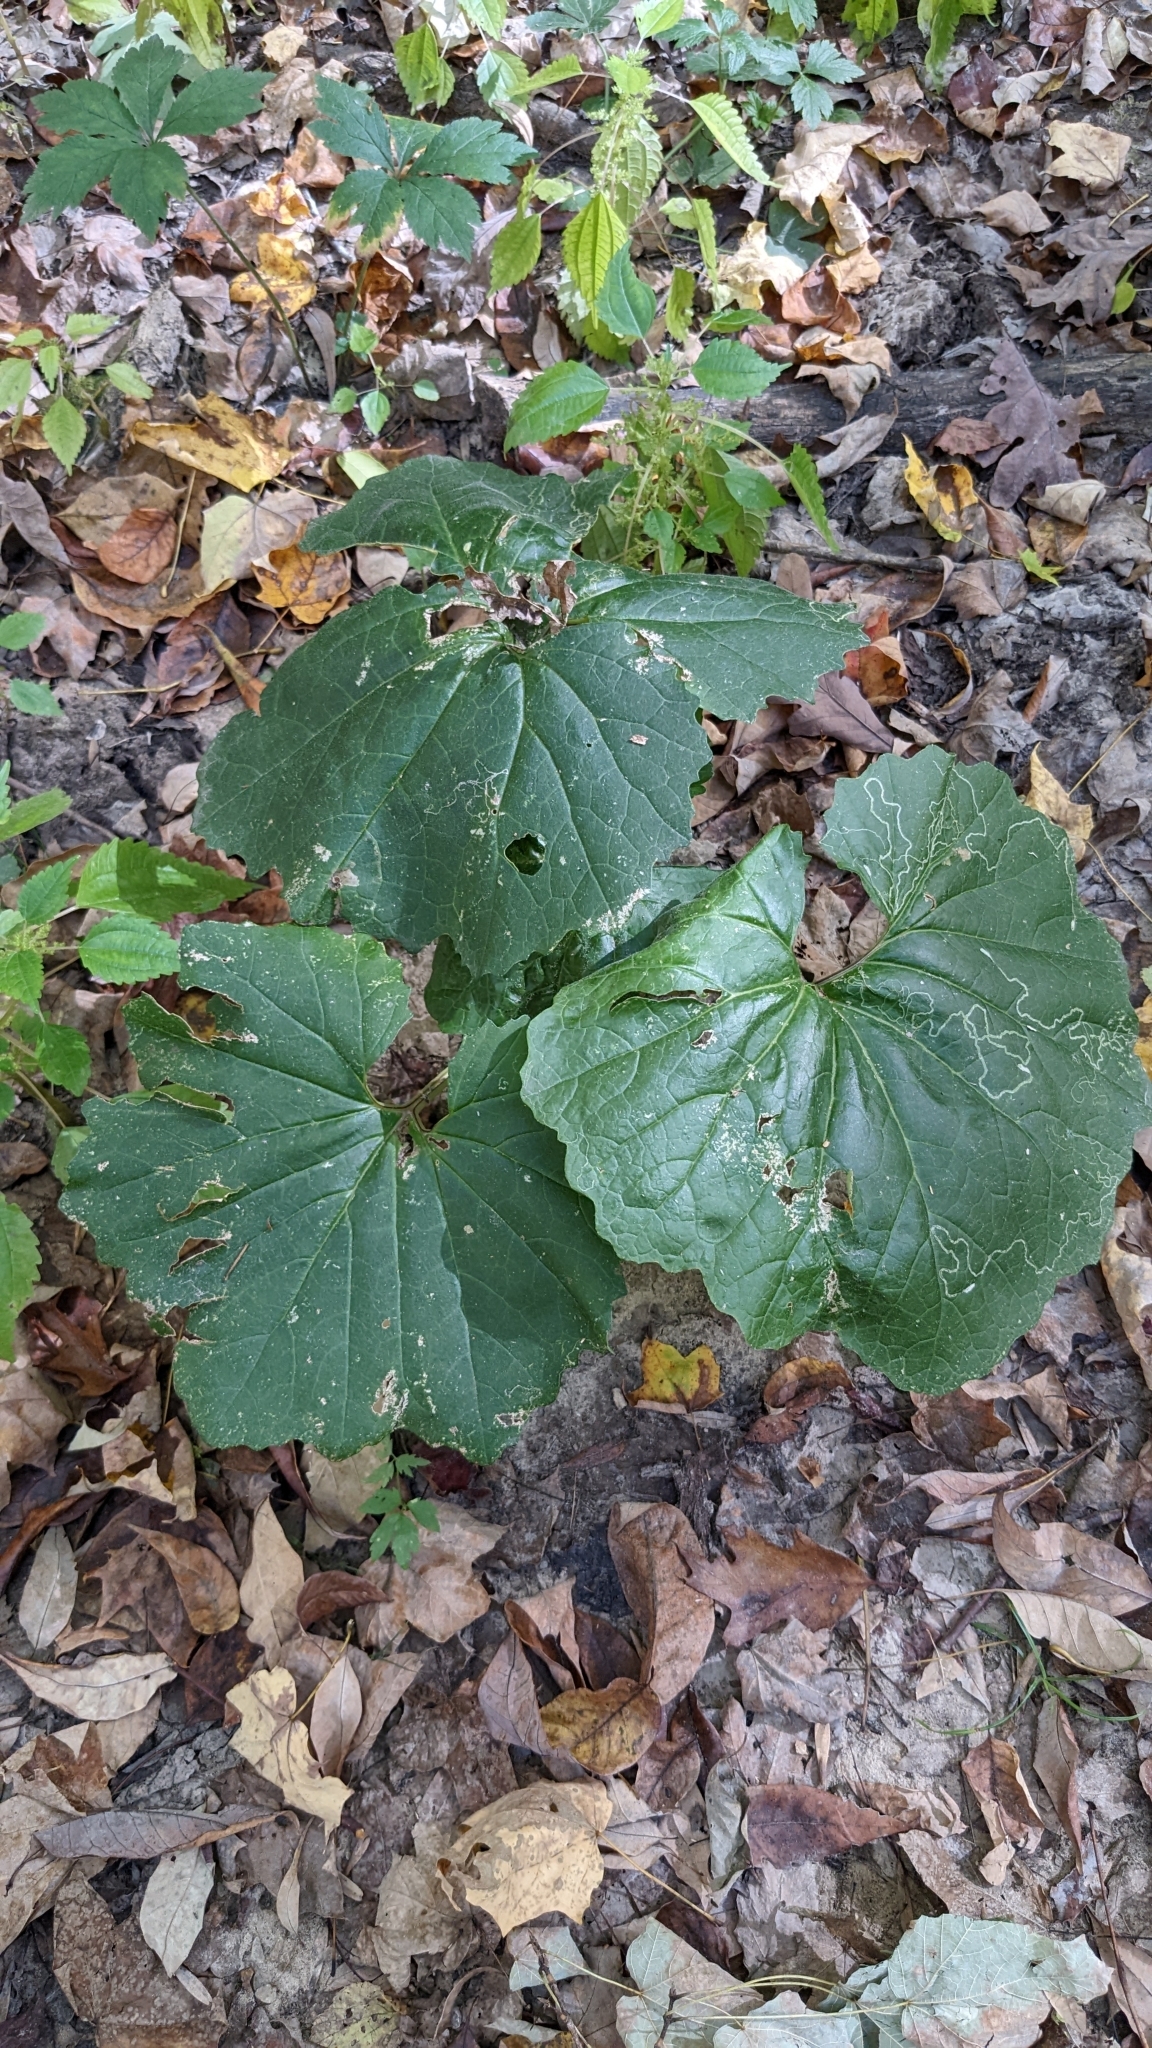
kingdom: Plantae
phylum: Tracheophyta
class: Magnoliopsida
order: Asterales
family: Asteraceae
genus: Arnoglossum
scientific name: Arnoglossum reniforme
